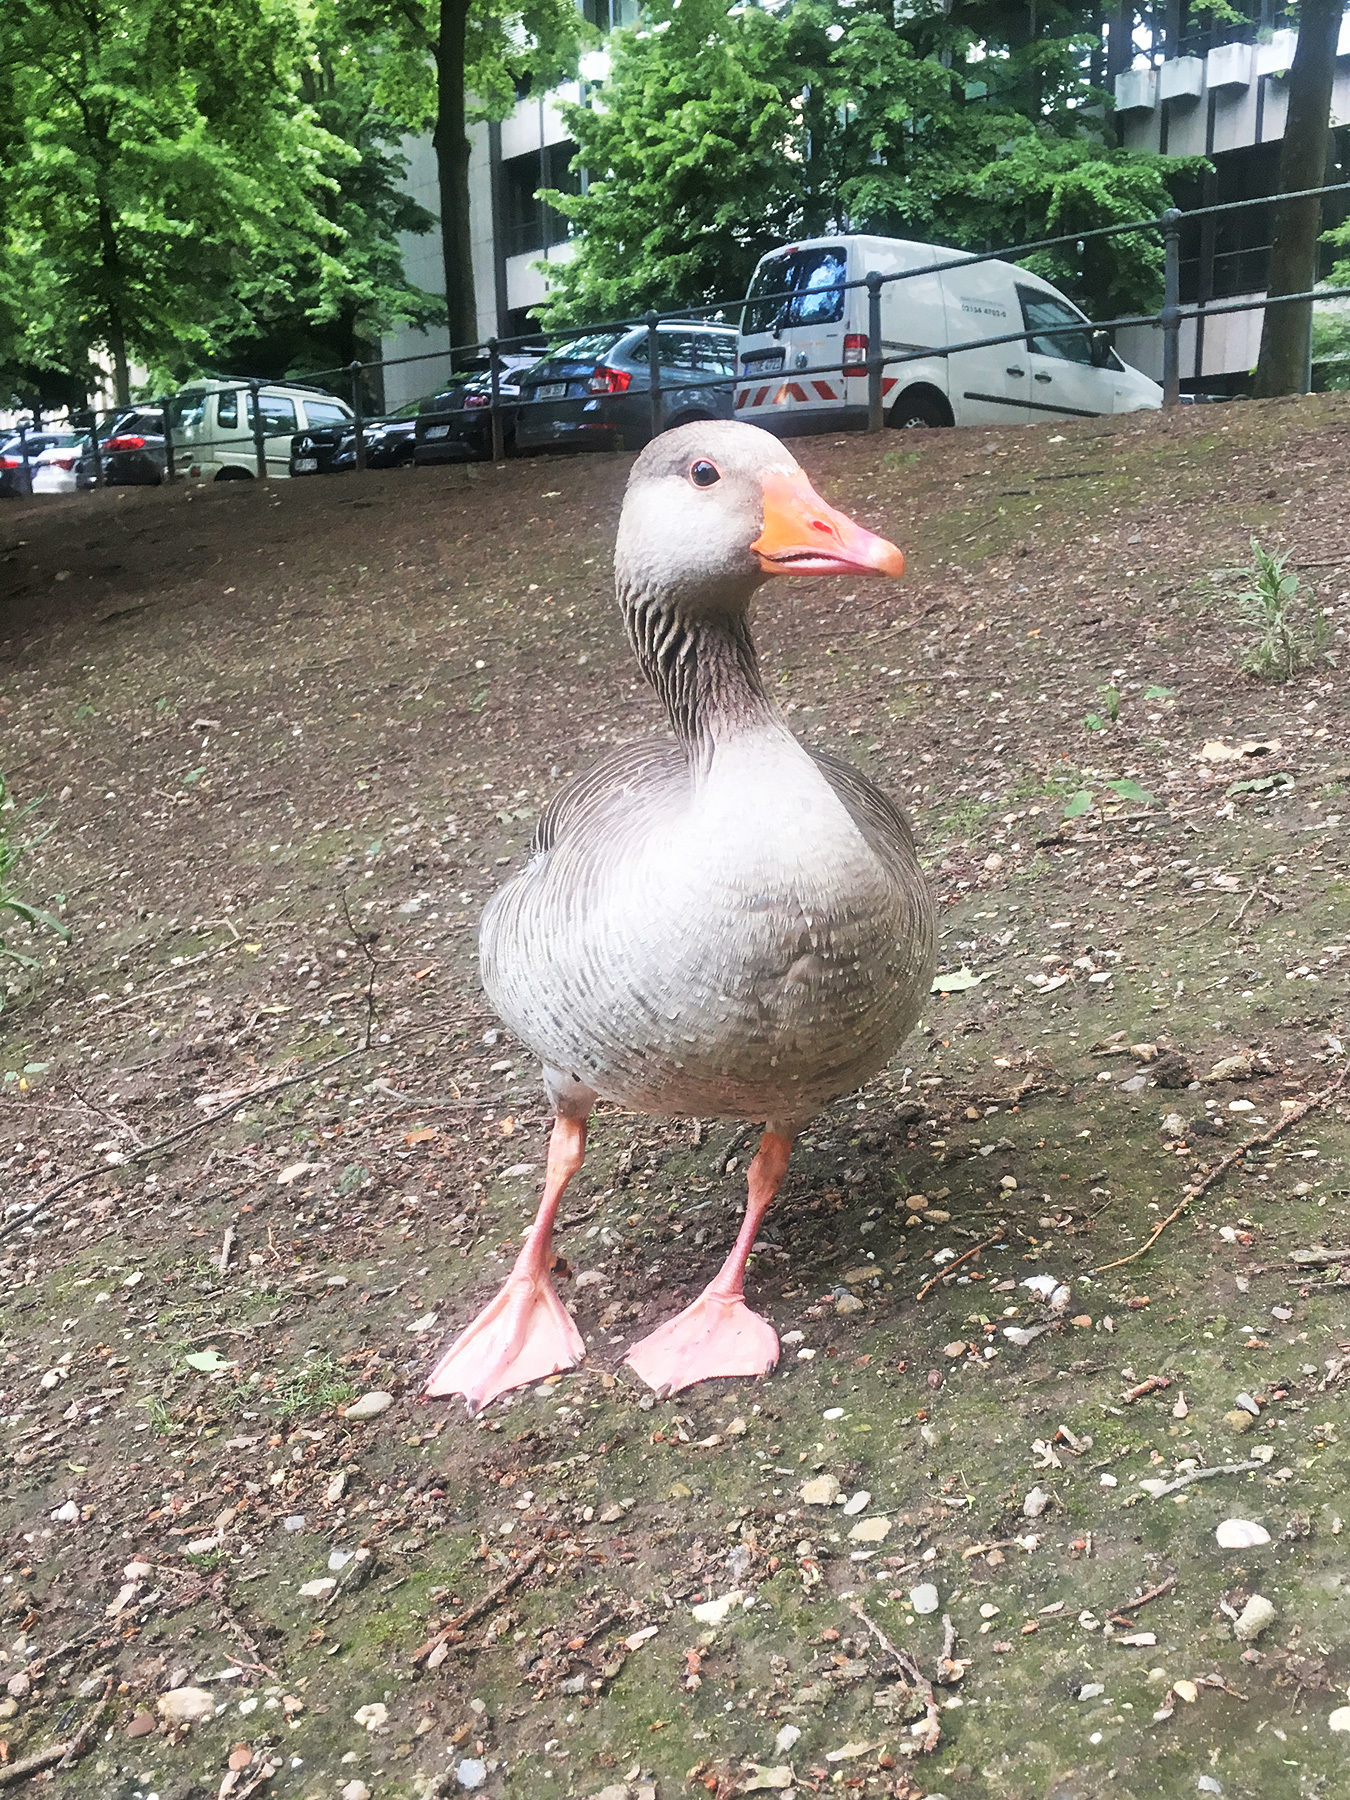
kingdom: Animalia
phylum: Chordata
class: Aves
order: Anseriformes
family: Anatidae
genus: Anser
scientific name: Anser anser
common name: Greylag goose
